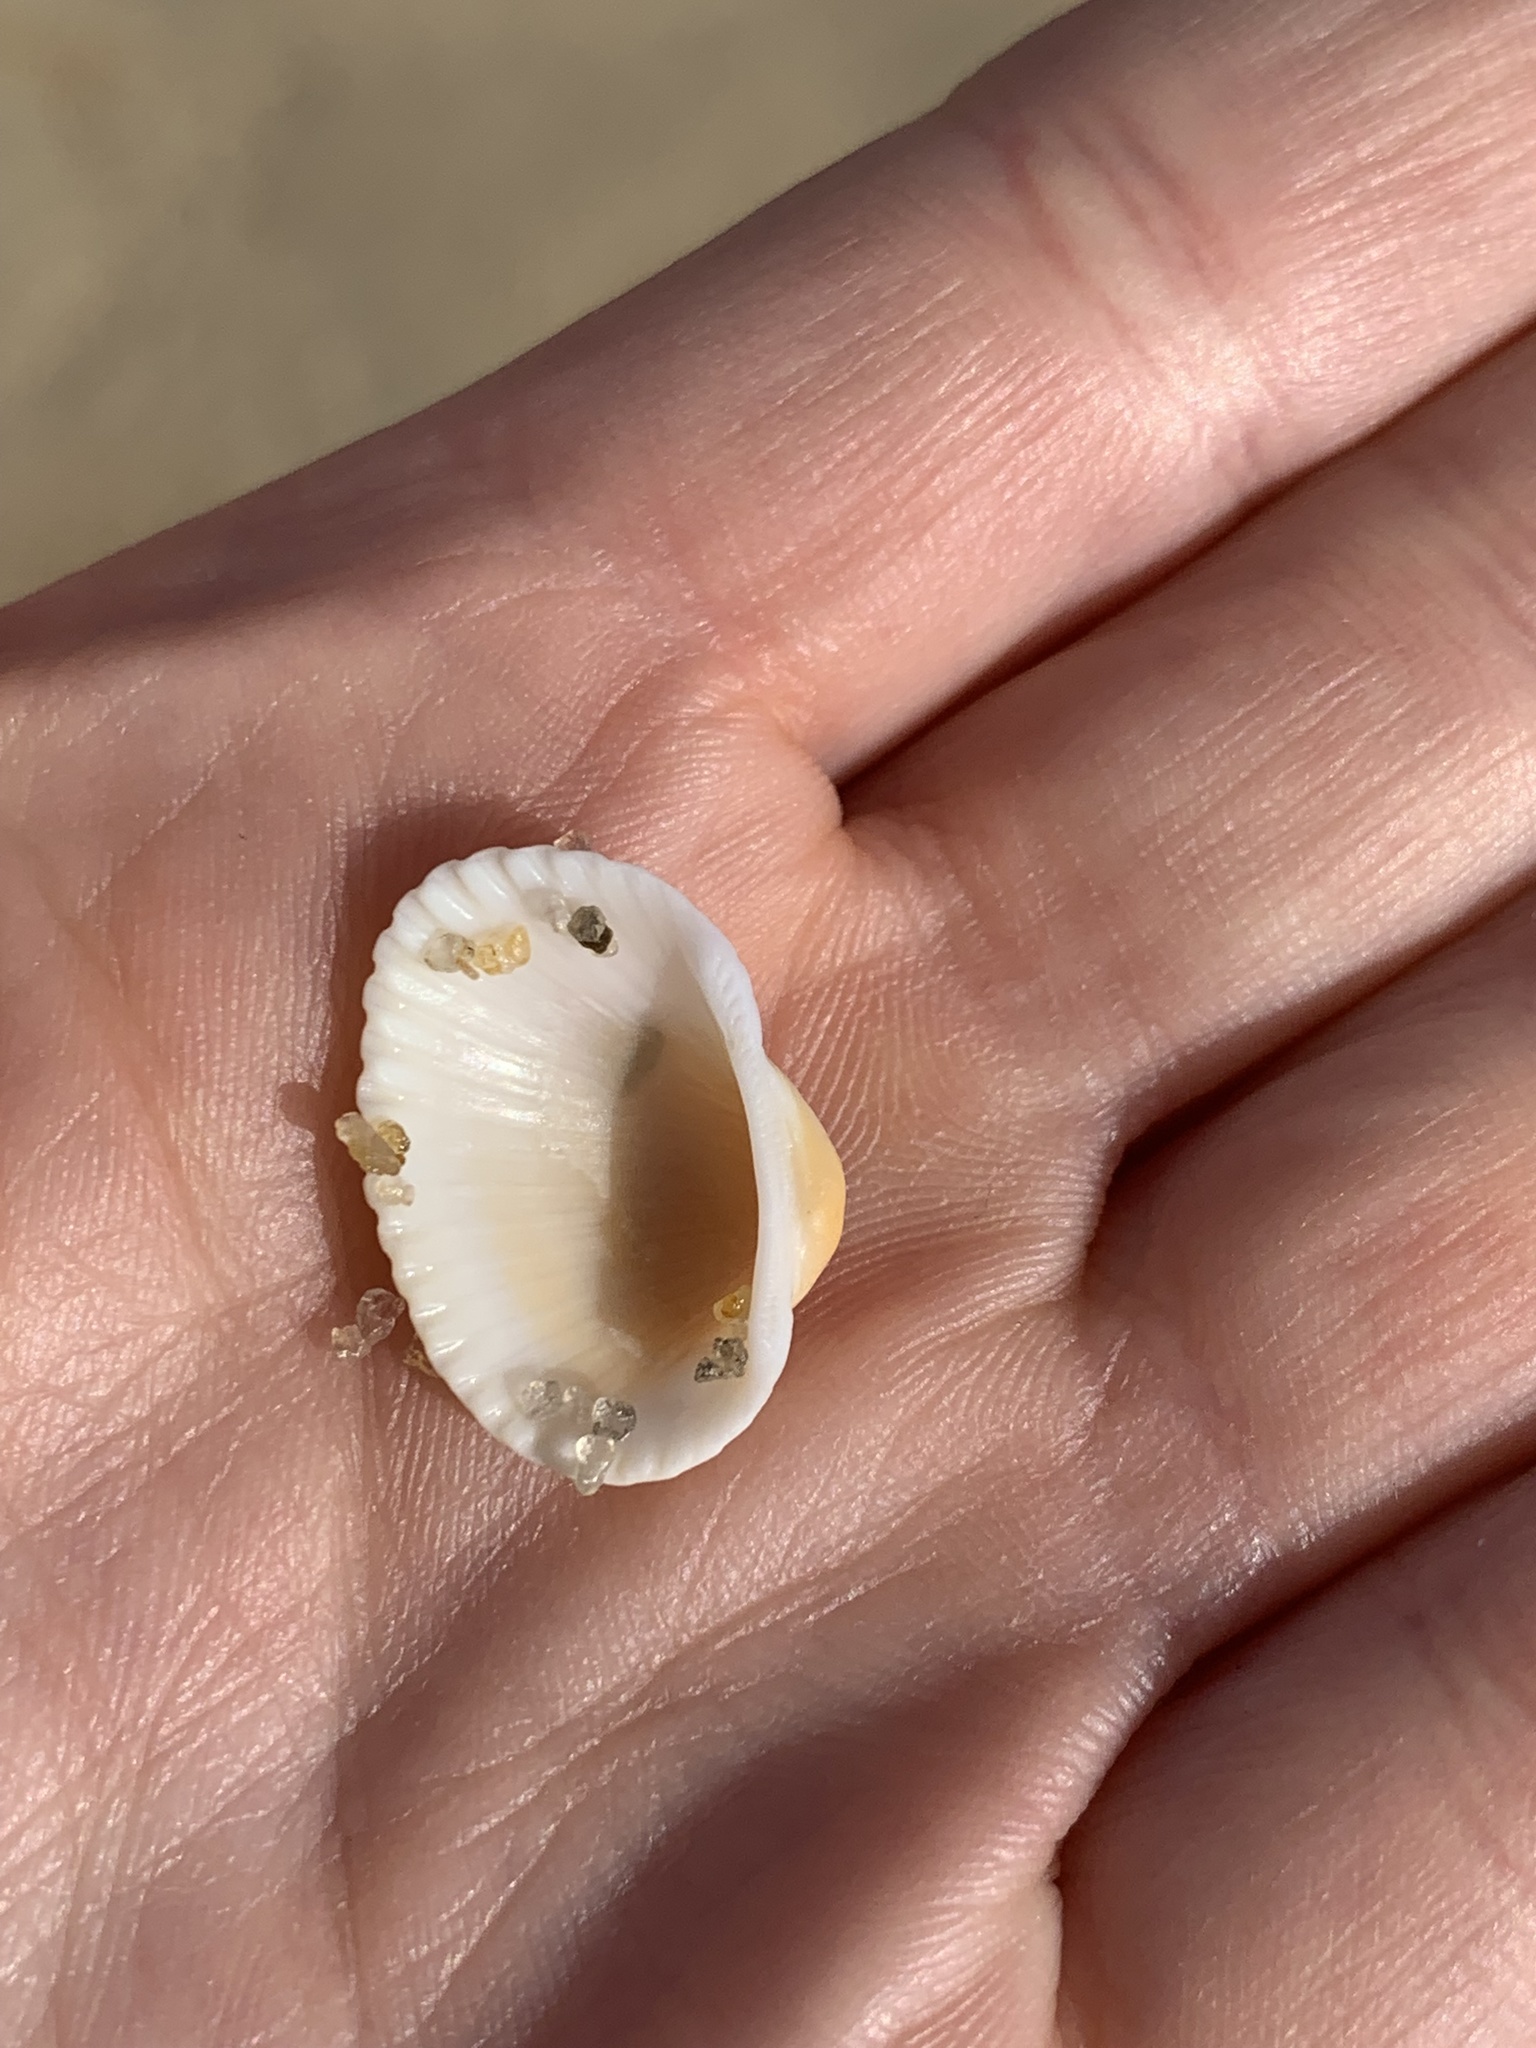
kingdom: Animalia
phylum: Mollusca
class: Bivalvia
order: Arcida
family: Arcidae
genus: Anadara
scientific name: Anadara transversa
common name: Transverse ark
